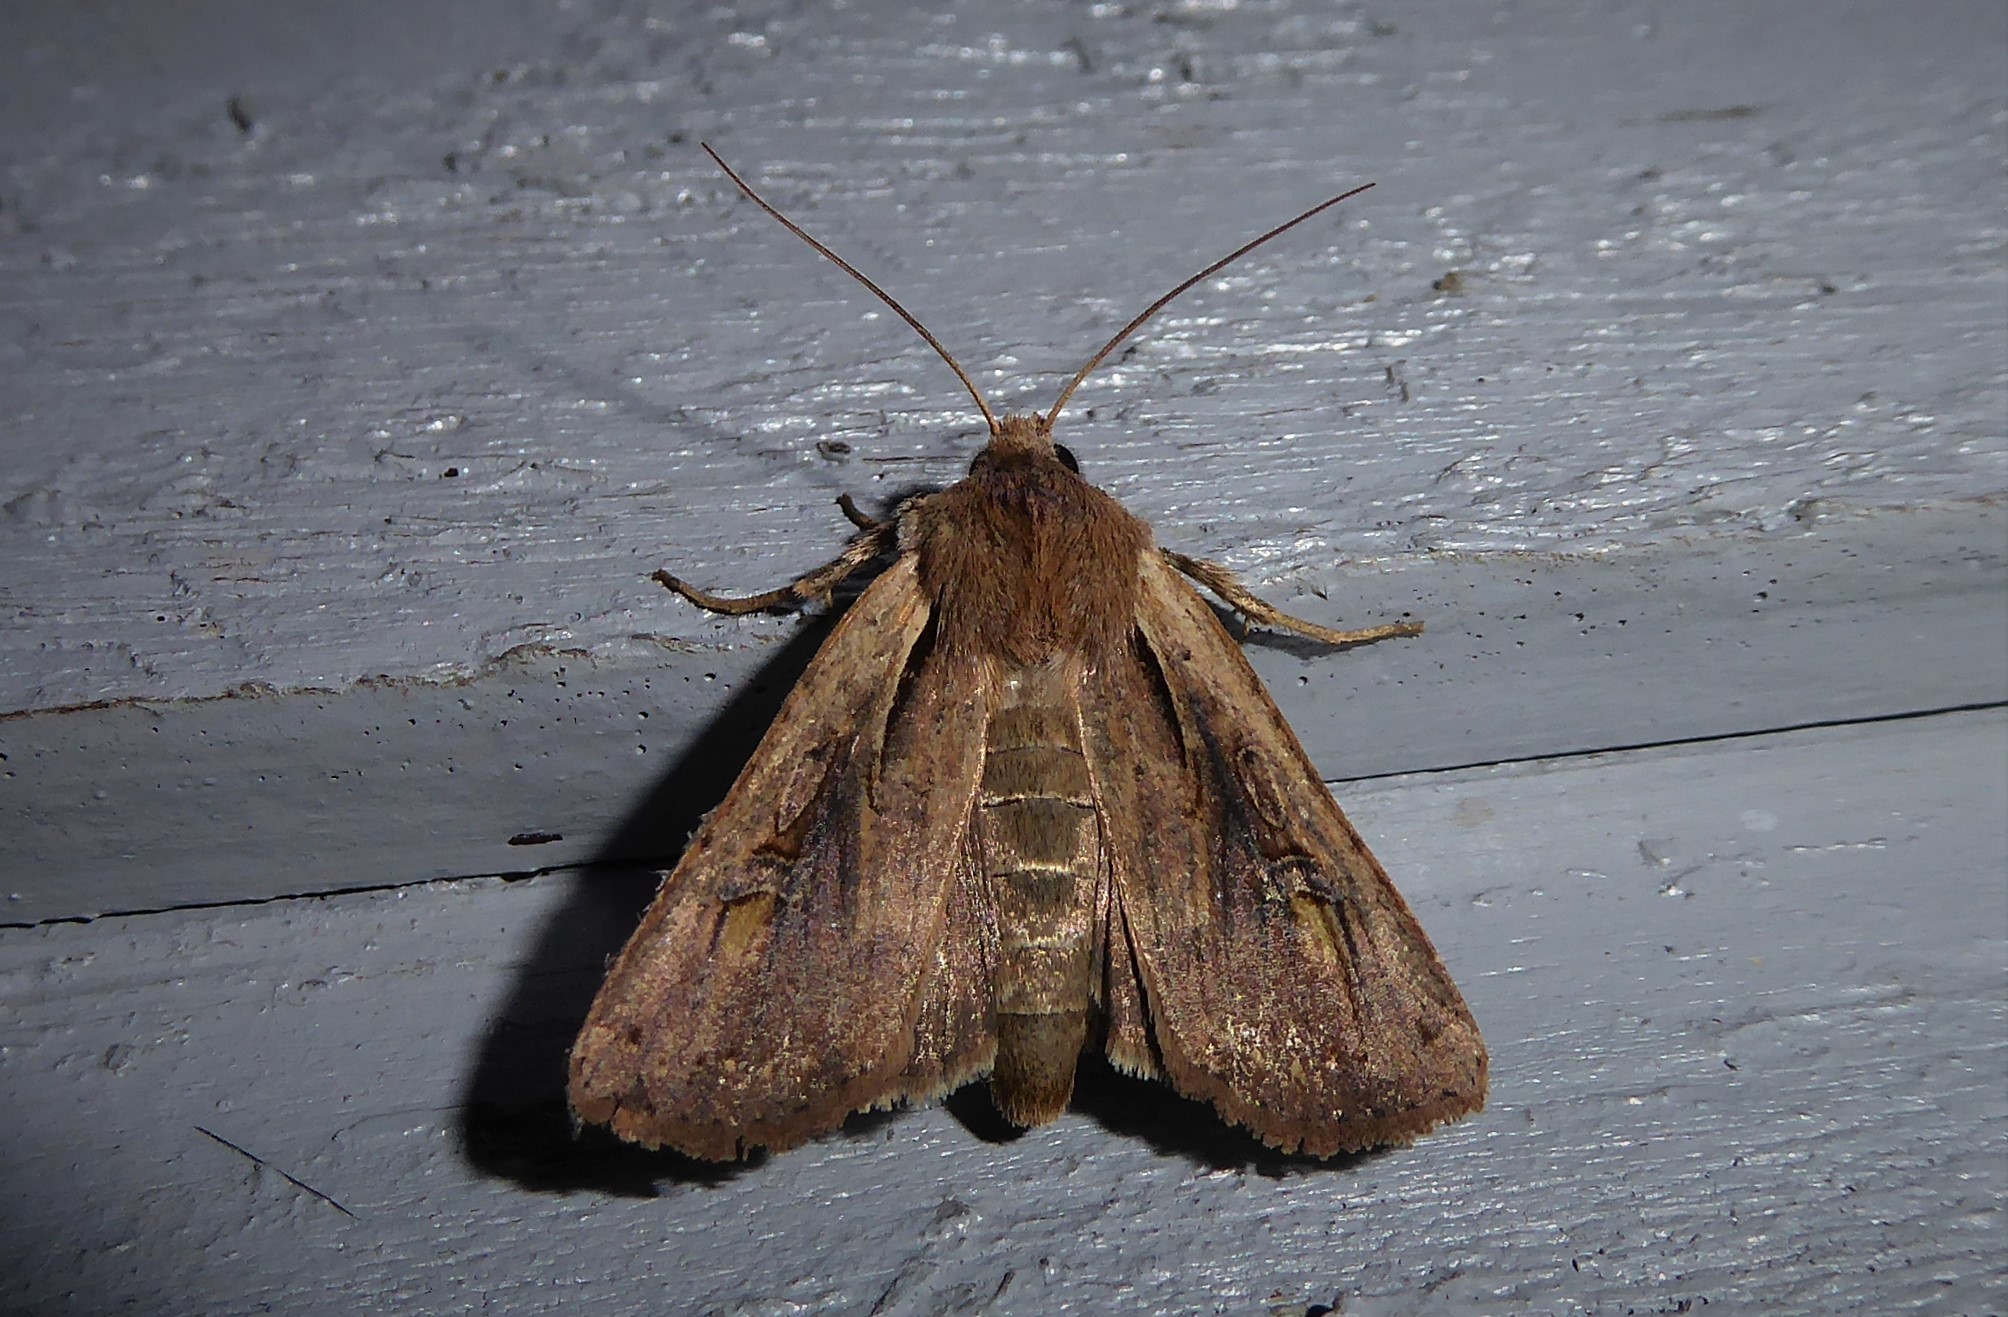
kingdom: Animalia
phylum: Arthropoda
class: Insecta
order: Lepidoptera
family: Noctuidae
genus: Ichneutica
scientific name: Ichneutica atristriga
